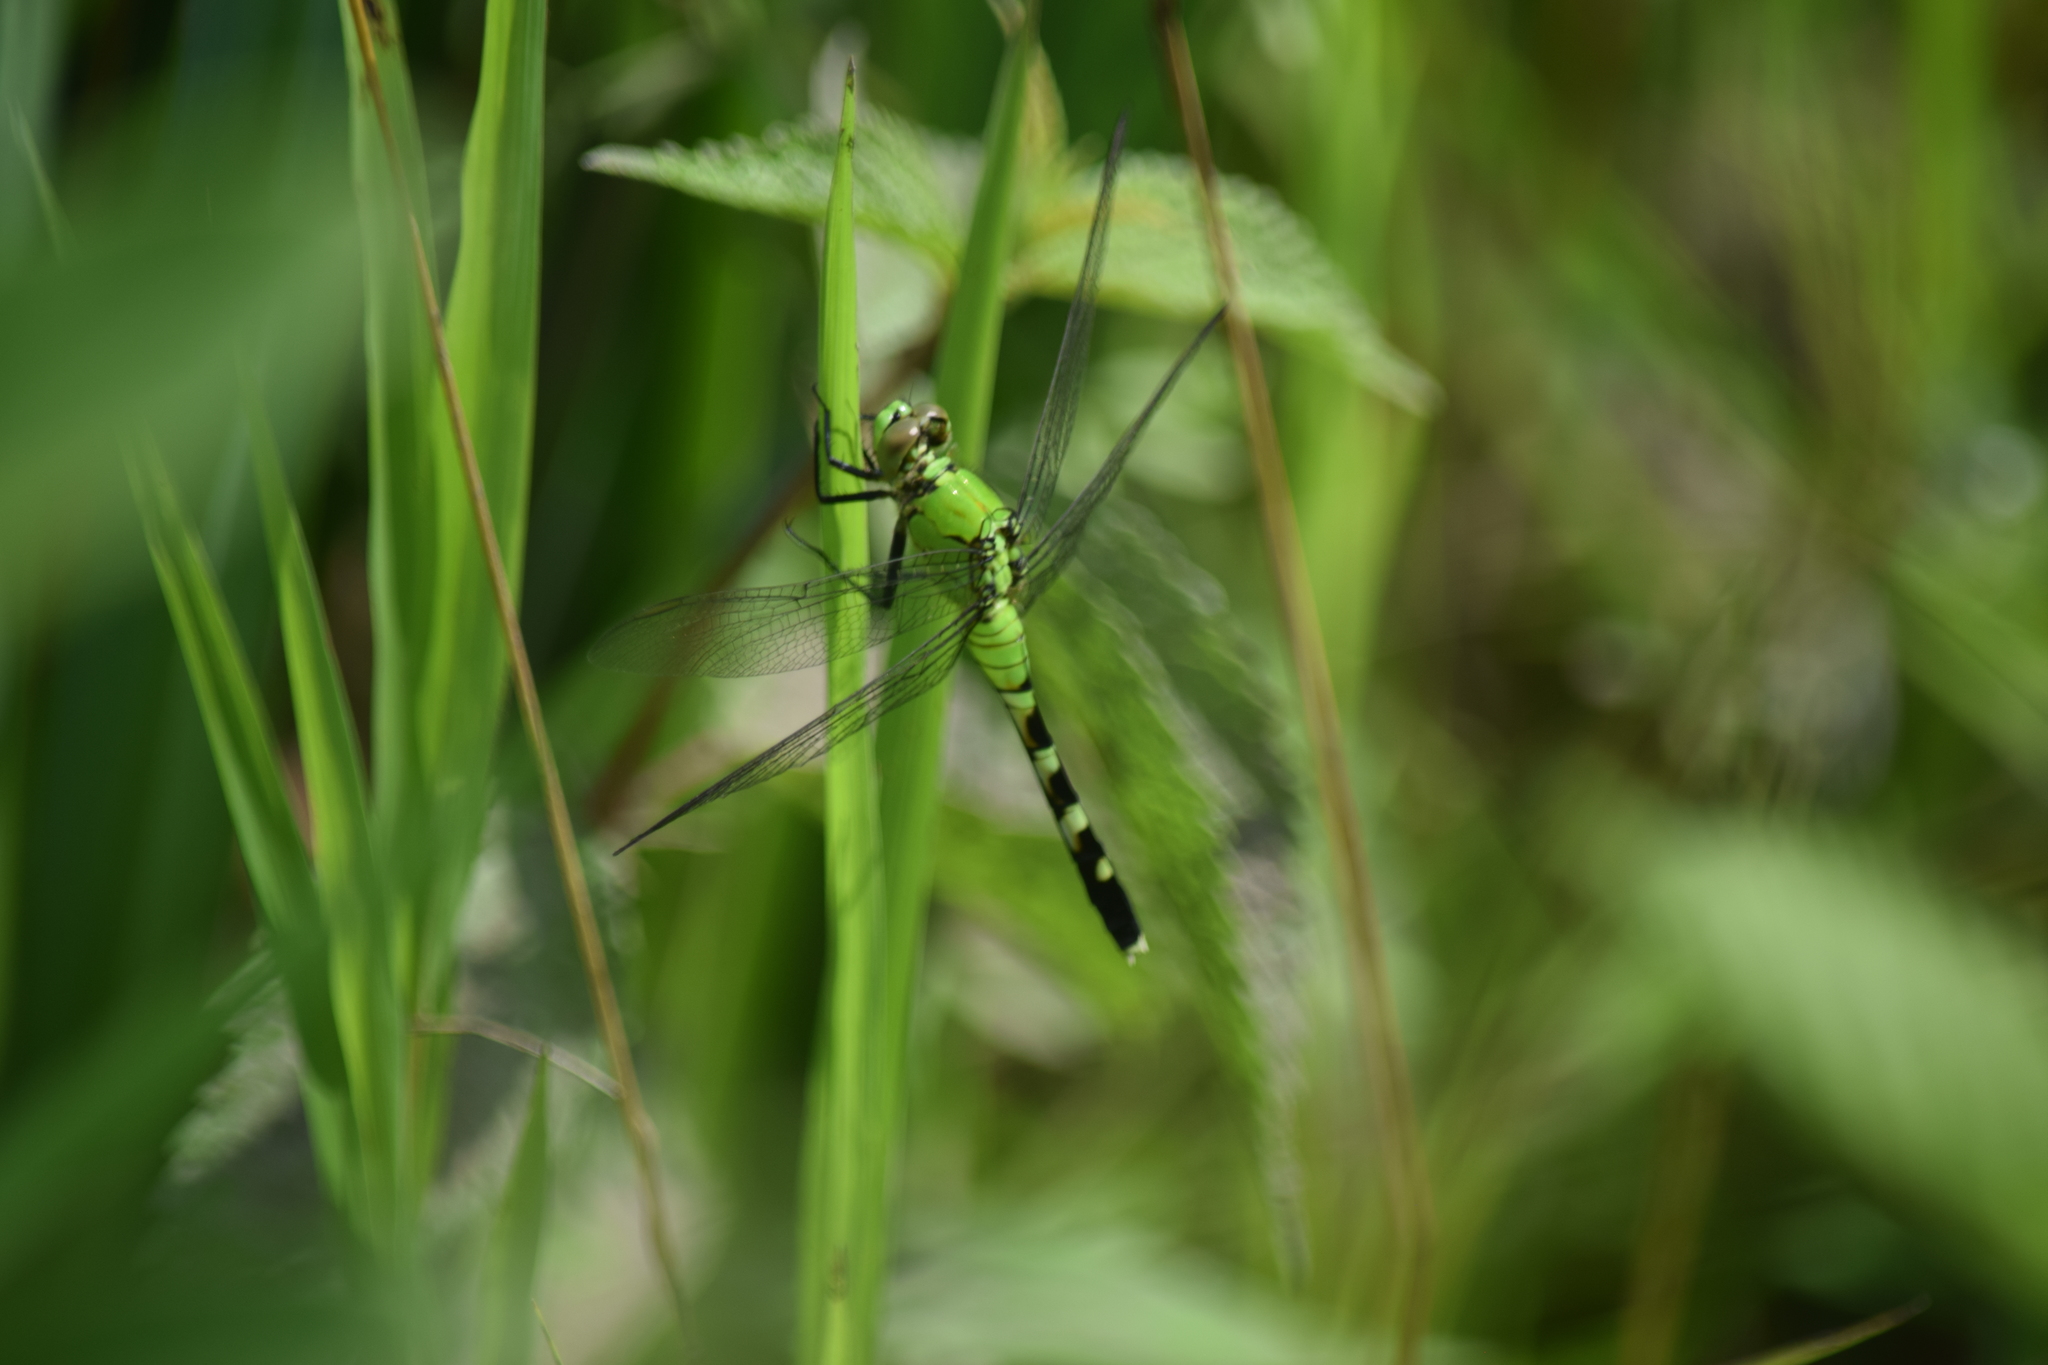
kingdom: Animalia
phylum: Arthropoda
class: Insecta
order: Odonata
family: Libellulidae
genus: Erythemis
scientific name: Erythemis simplicicollis
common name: Eastern pondhawk
